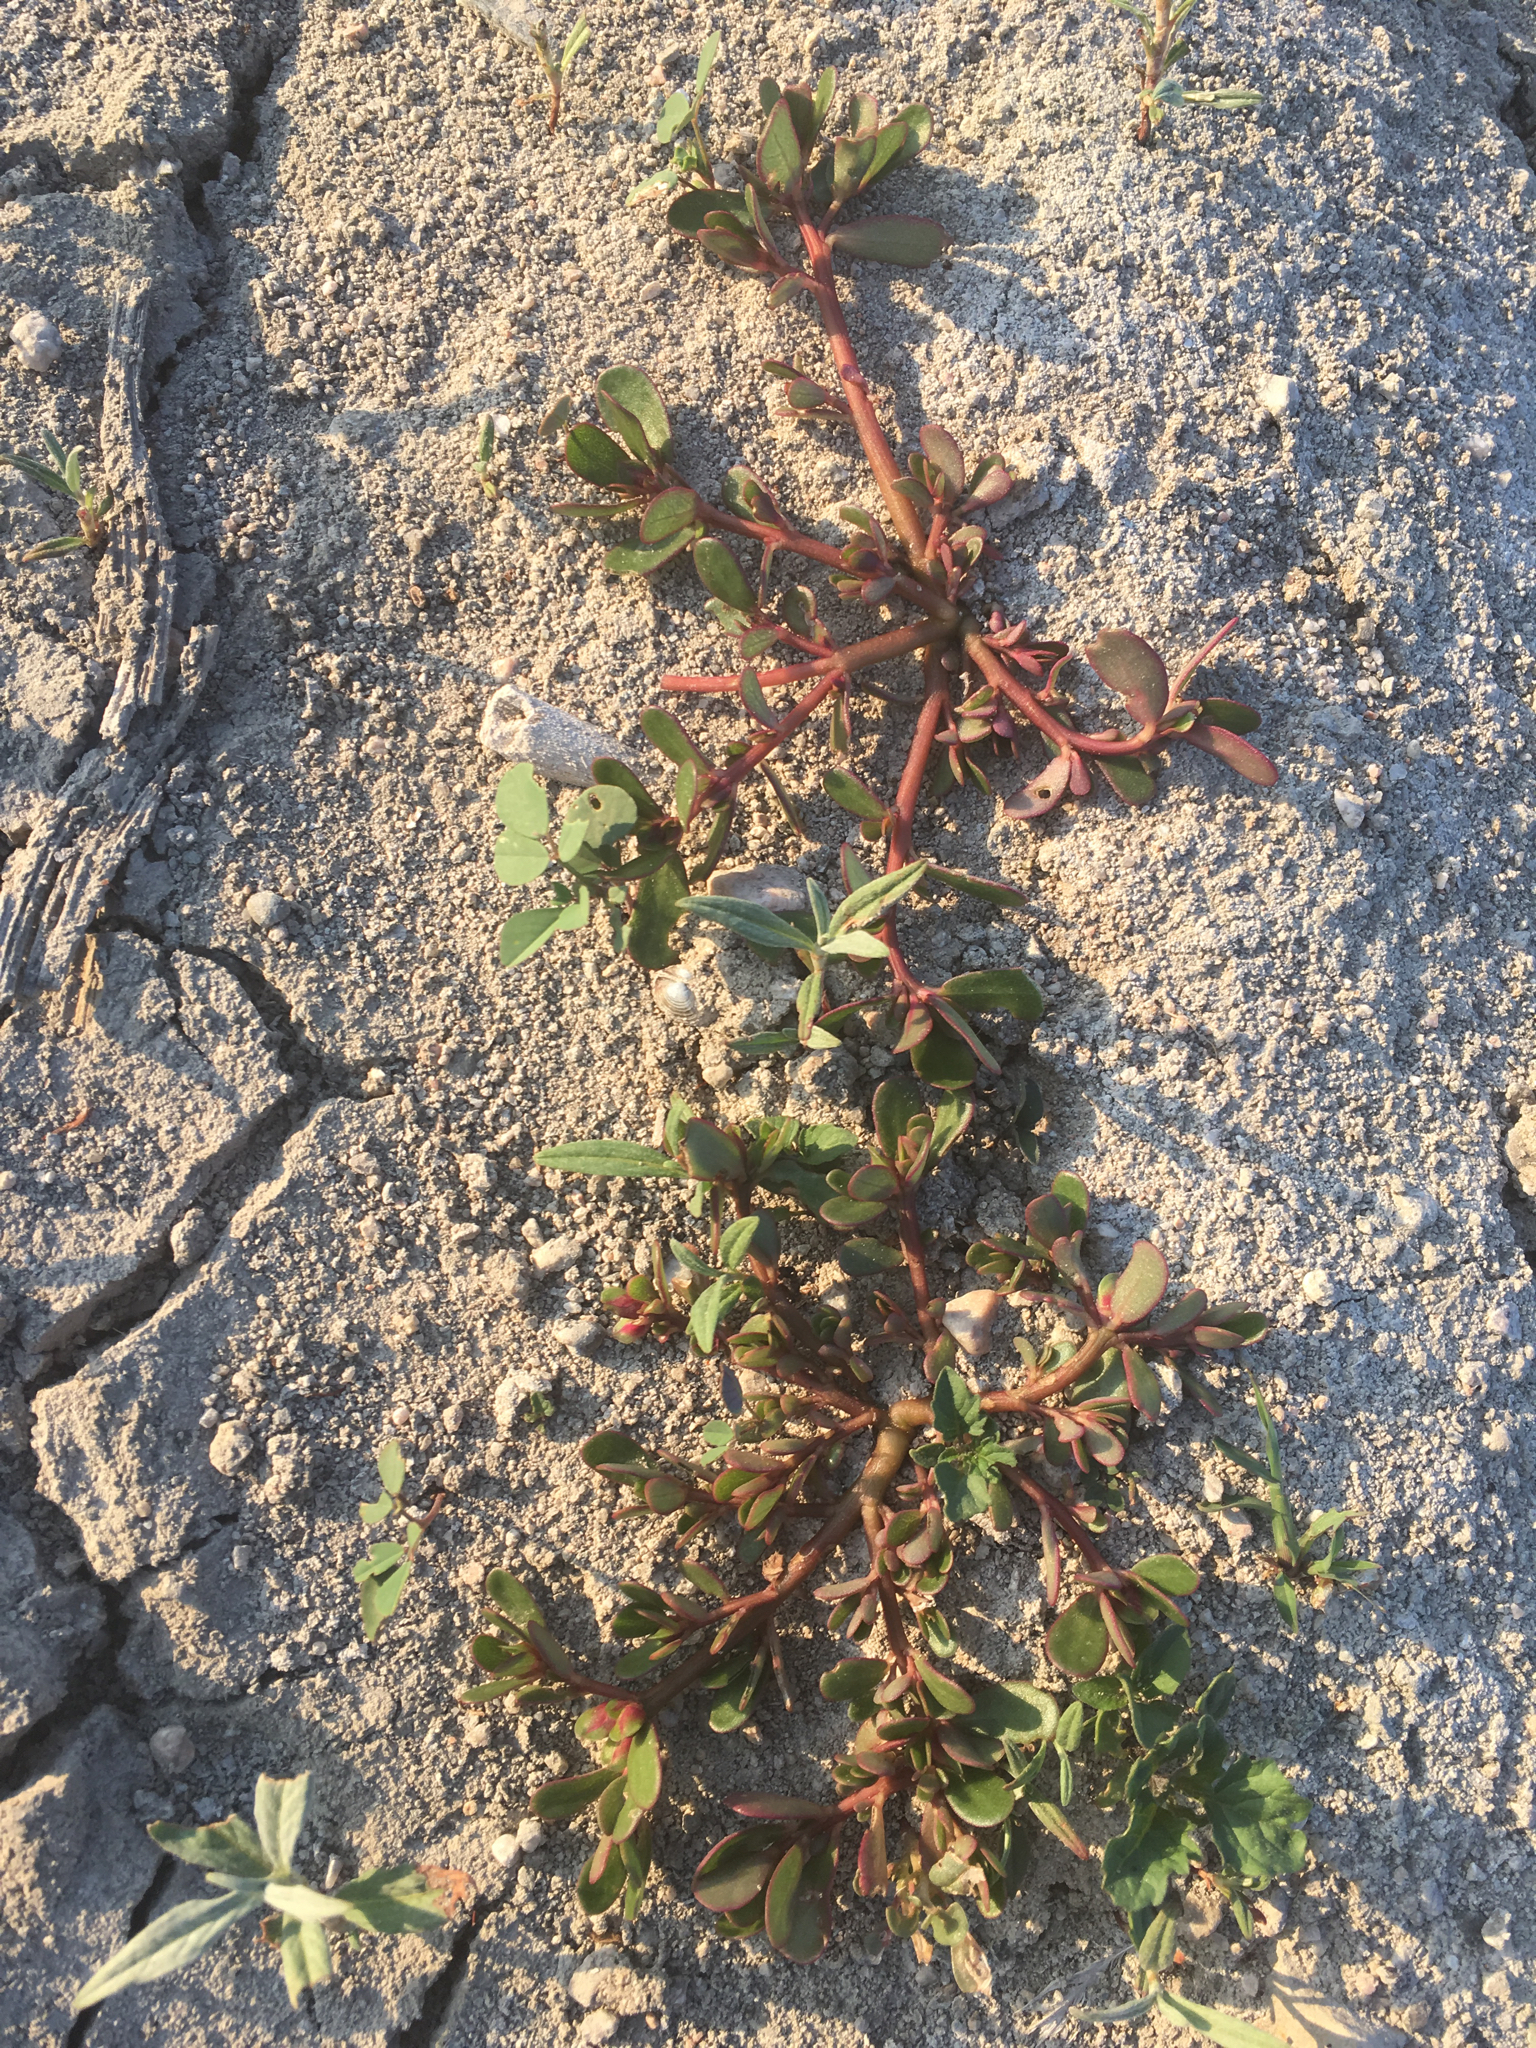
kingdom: Plantae
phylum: Tracheophyta
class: Magnoliopsida
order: Caryophyllales
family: Portulacaceae
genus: Portulaca
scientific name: Portulaca oleracea
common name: Common purslane
